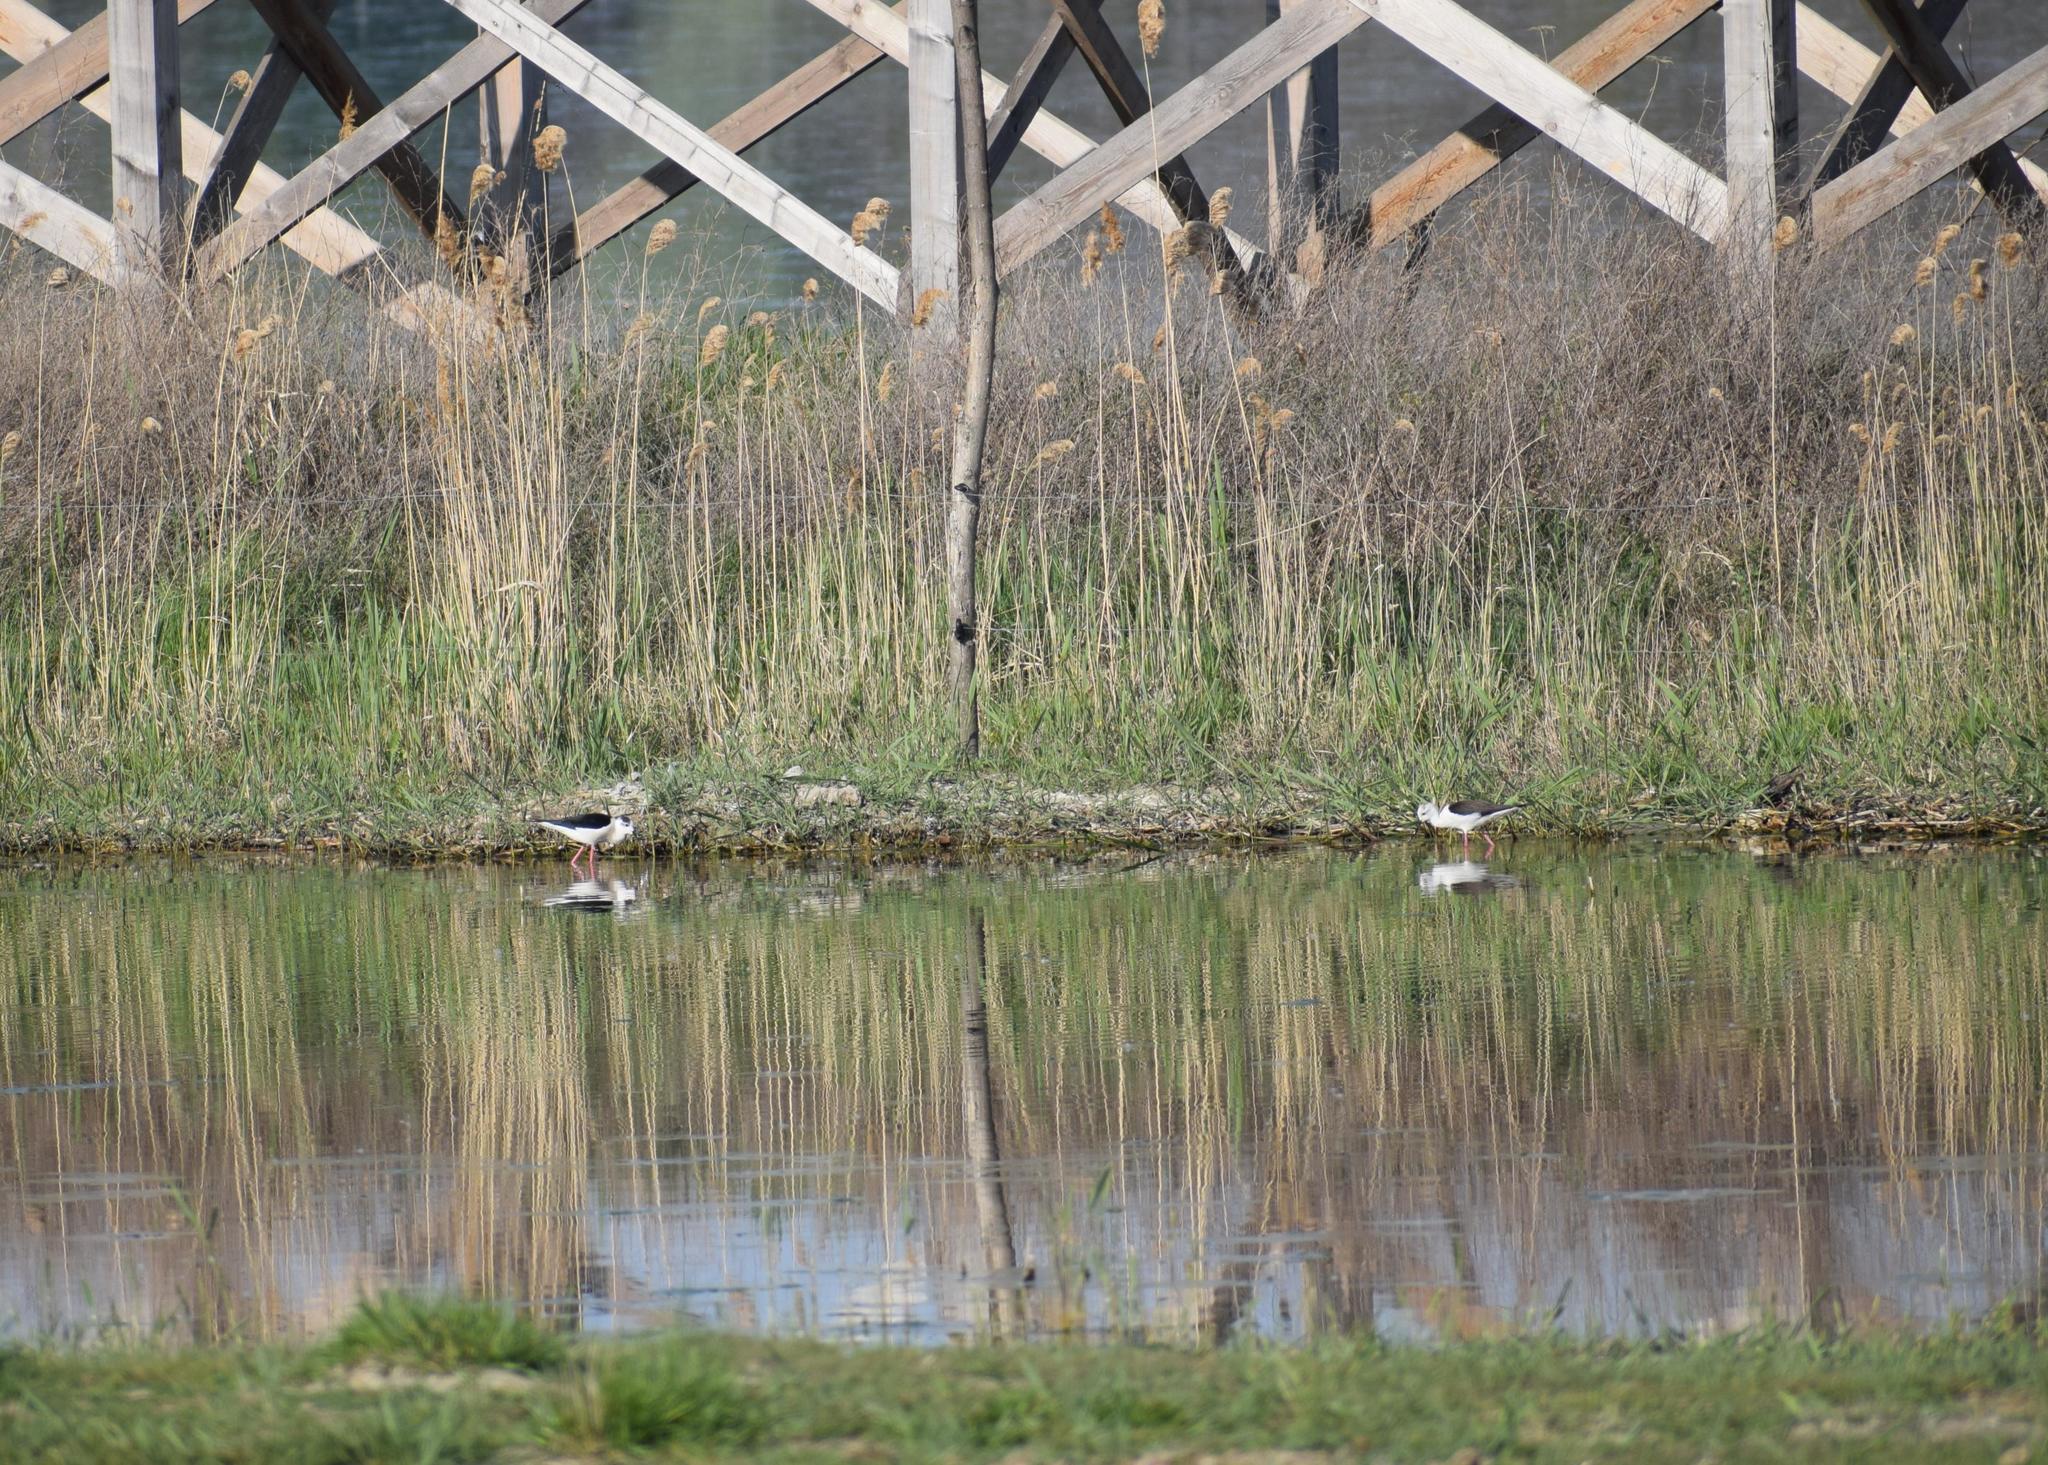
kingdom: Animalia
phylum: Chordata
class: Aves
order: Charadriiformes
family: Recurvirostridae
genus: Himantopus
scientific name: Himantopus himantopus
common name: Black-winged stilt
